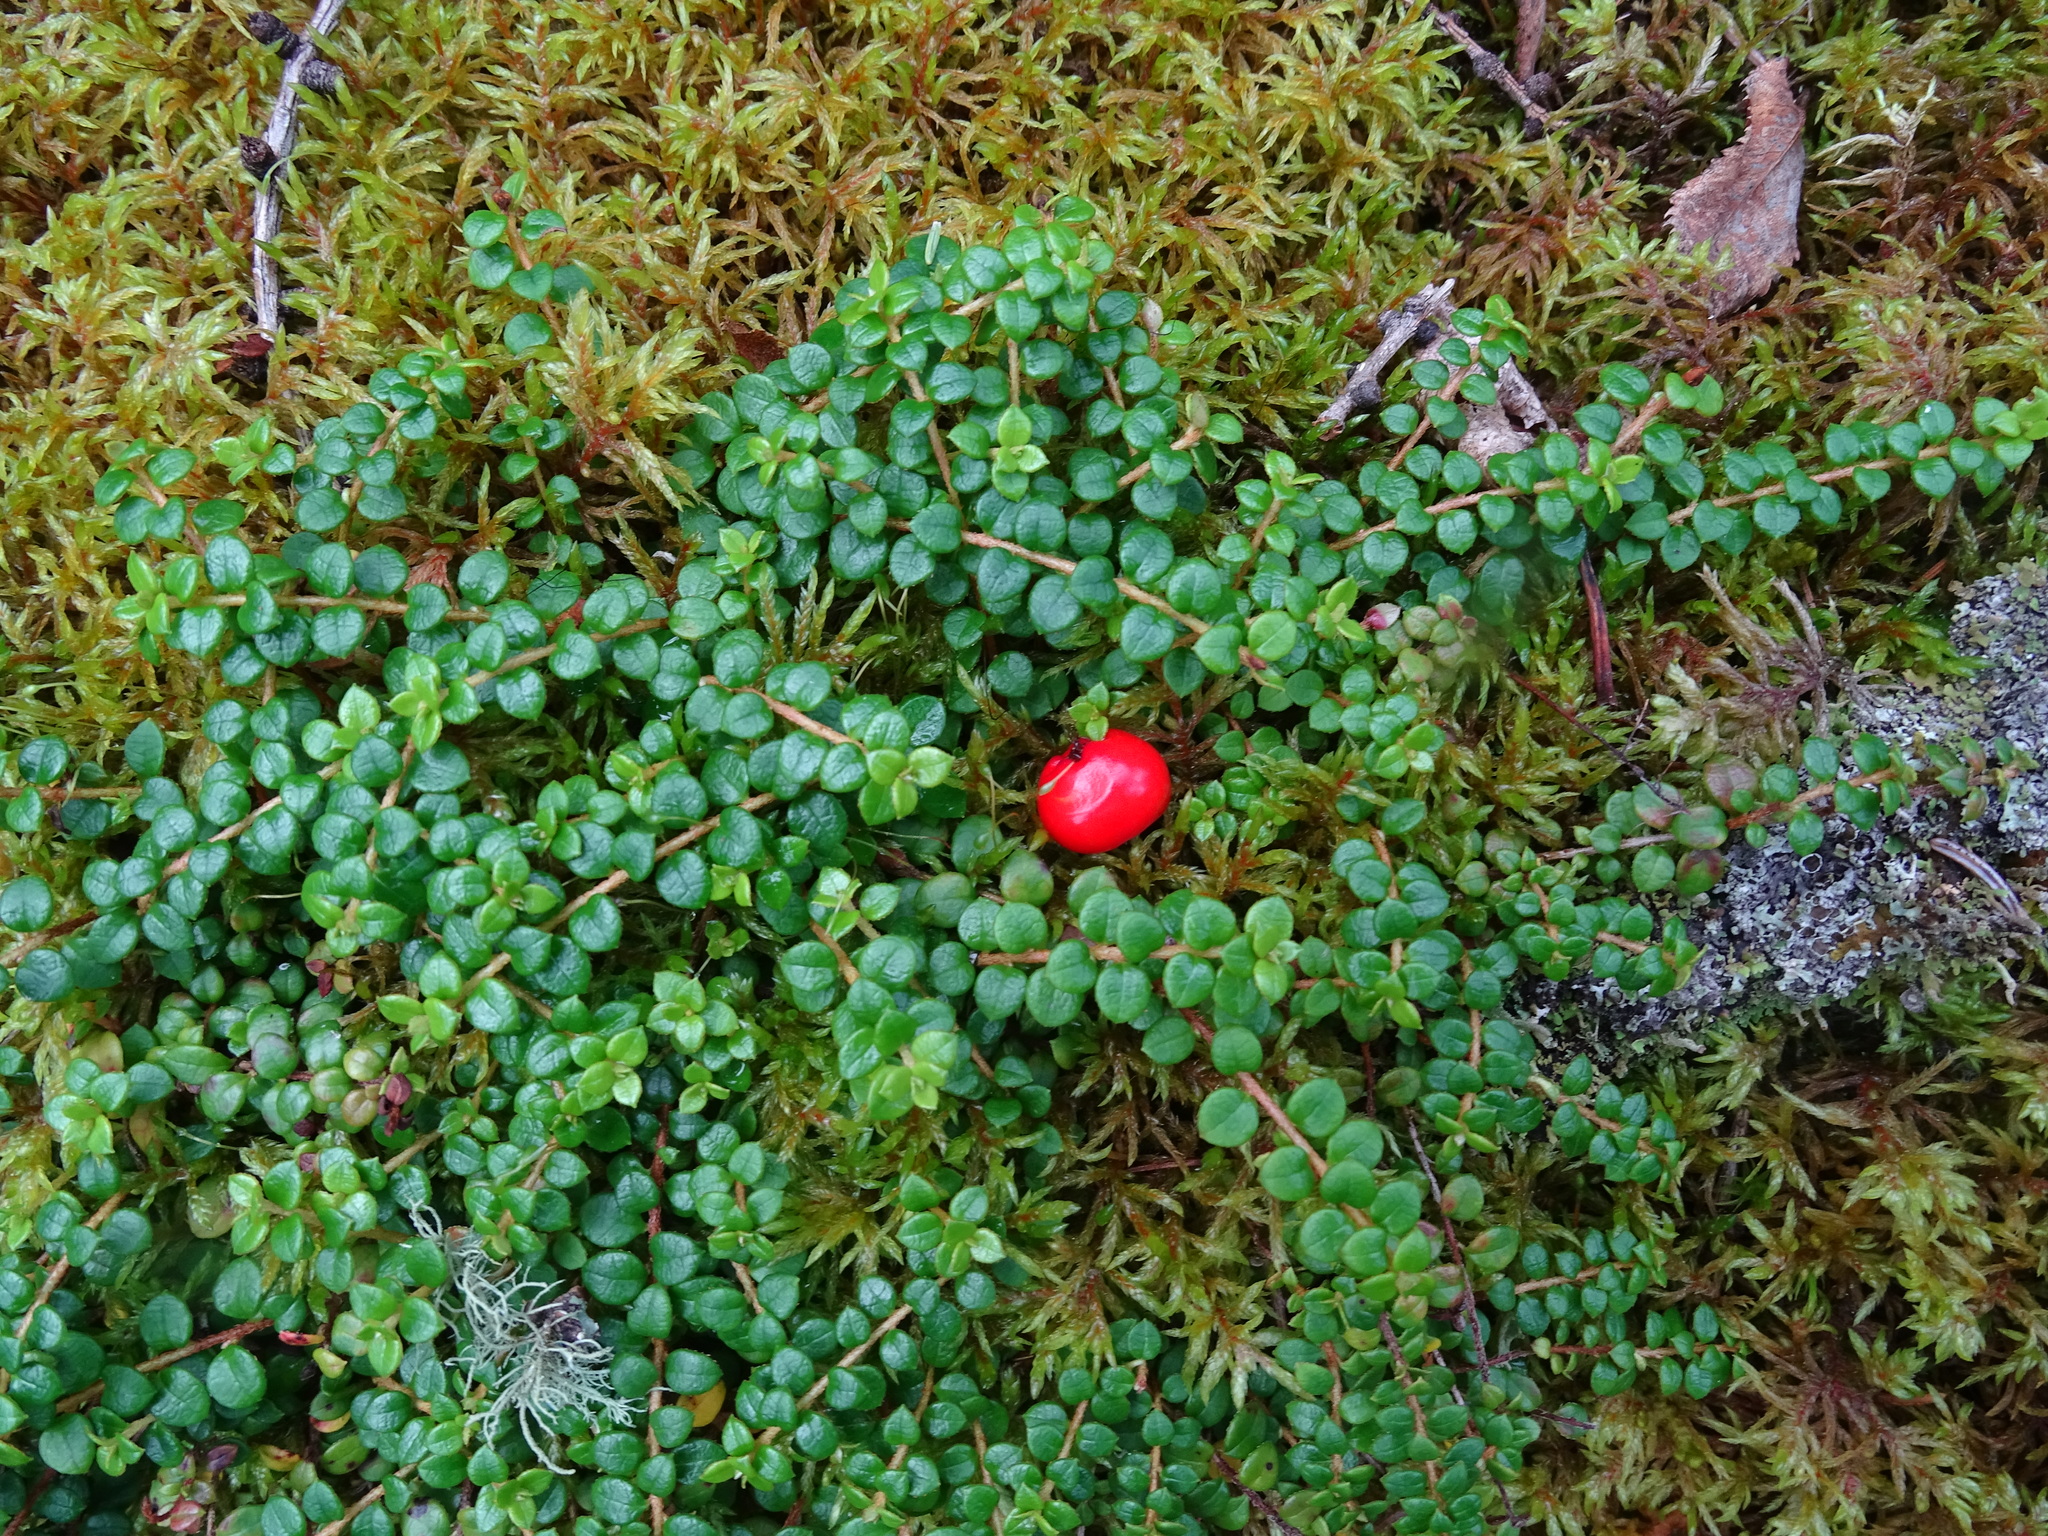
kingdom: Plantae
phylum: Tracheophyta
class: Magnoliopsida
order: Ericales
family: Ericaceae
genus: Gaultheria
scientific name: Gaultheria hispidula
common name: Cancer wintergreen
